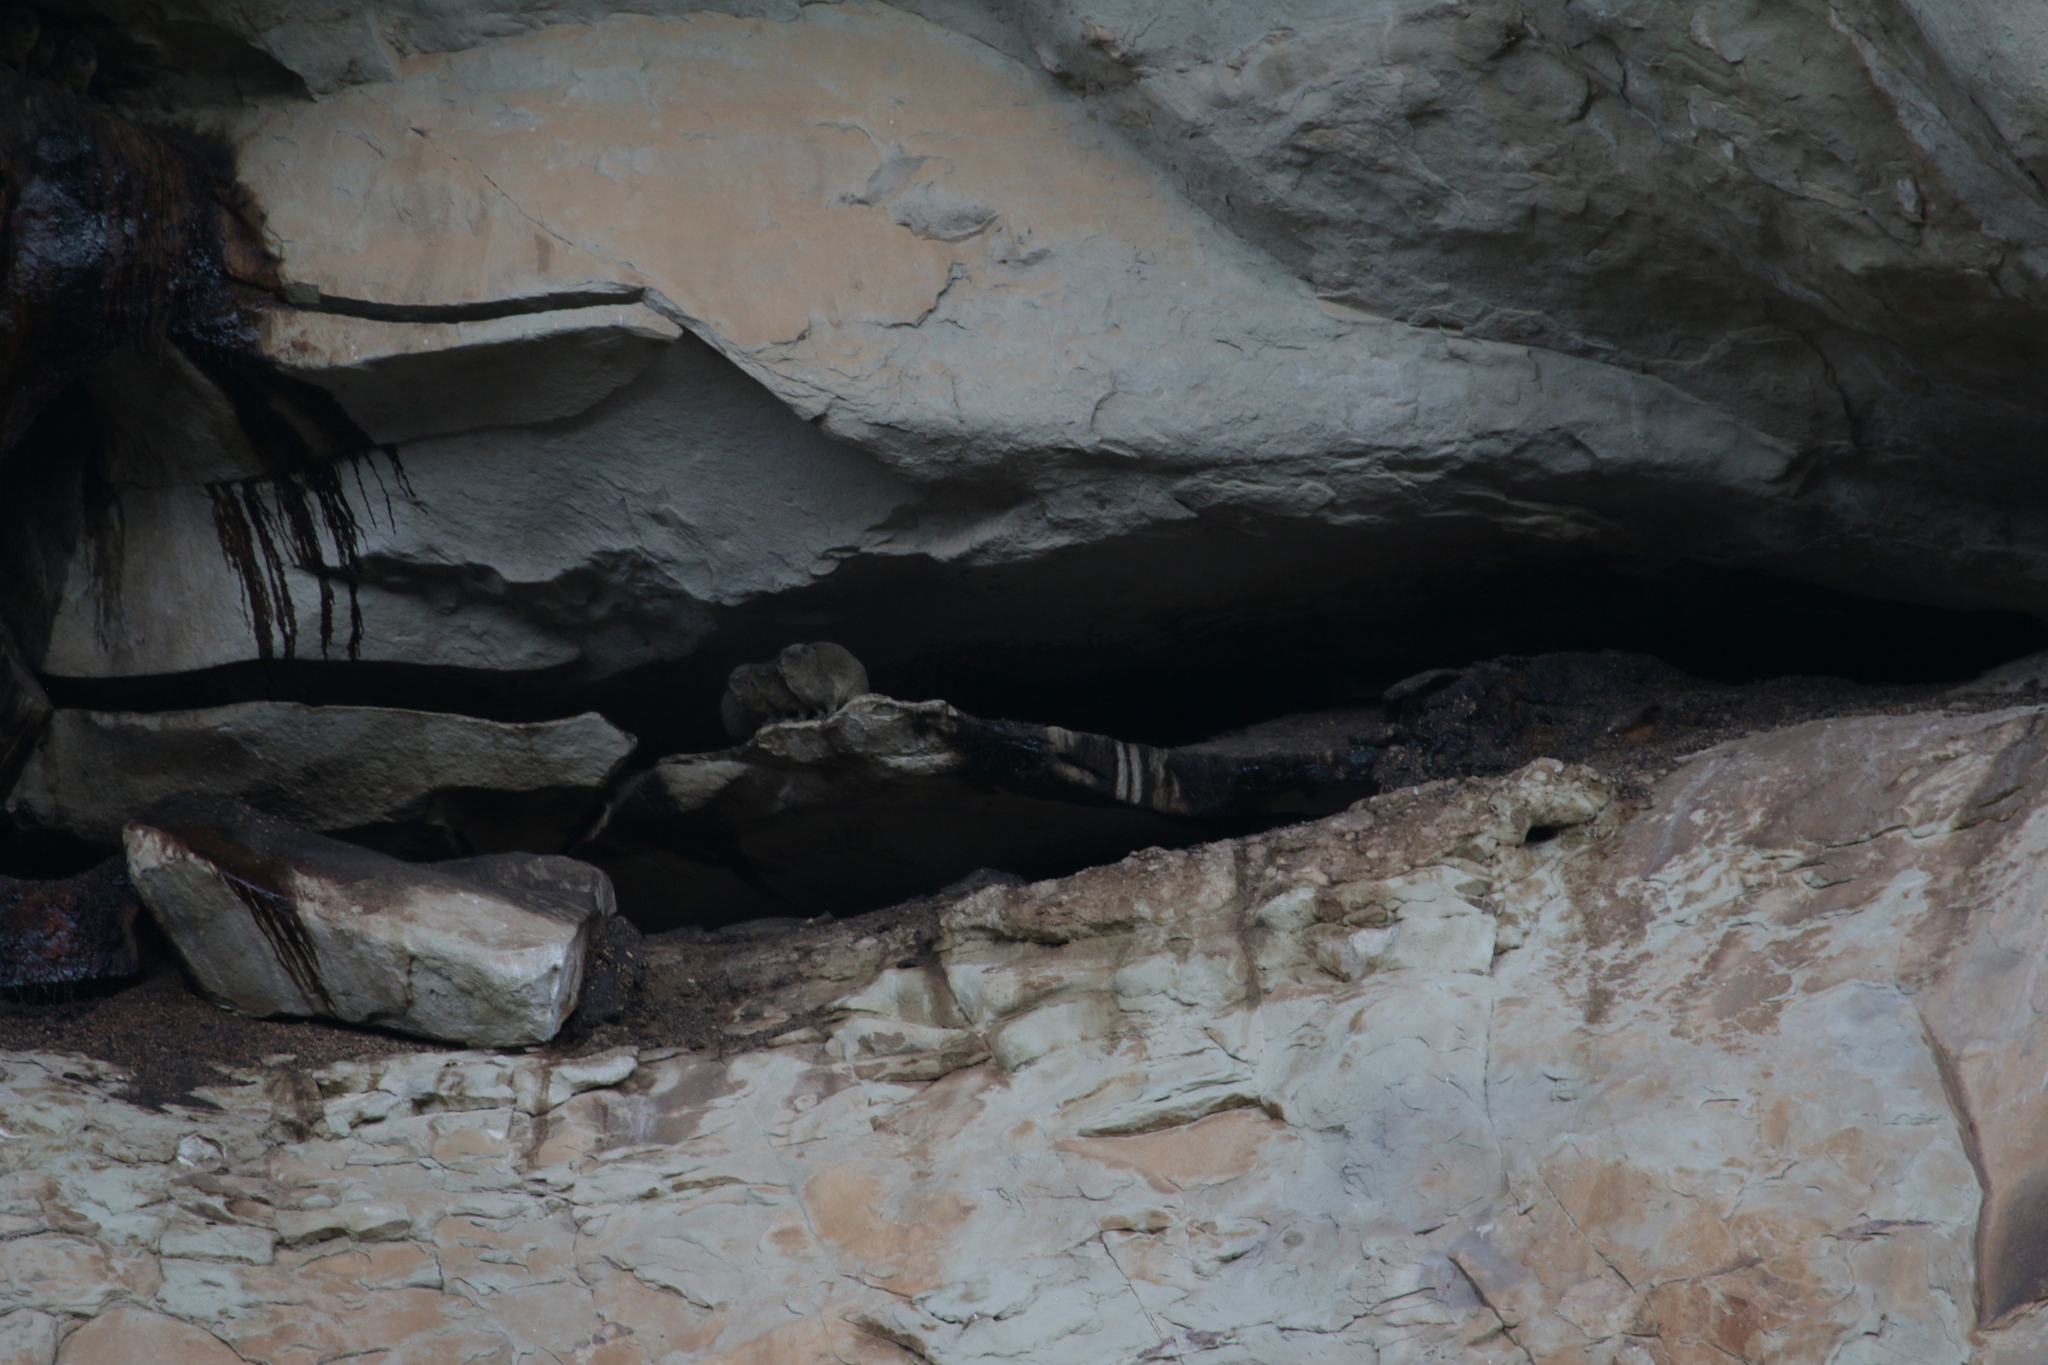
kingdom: Animalia
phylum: Chordata
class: Mammalia
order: Hyracoidea
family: Procaviidae
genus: Procavia
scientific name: Procavia capensis
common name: Rock hyrax
